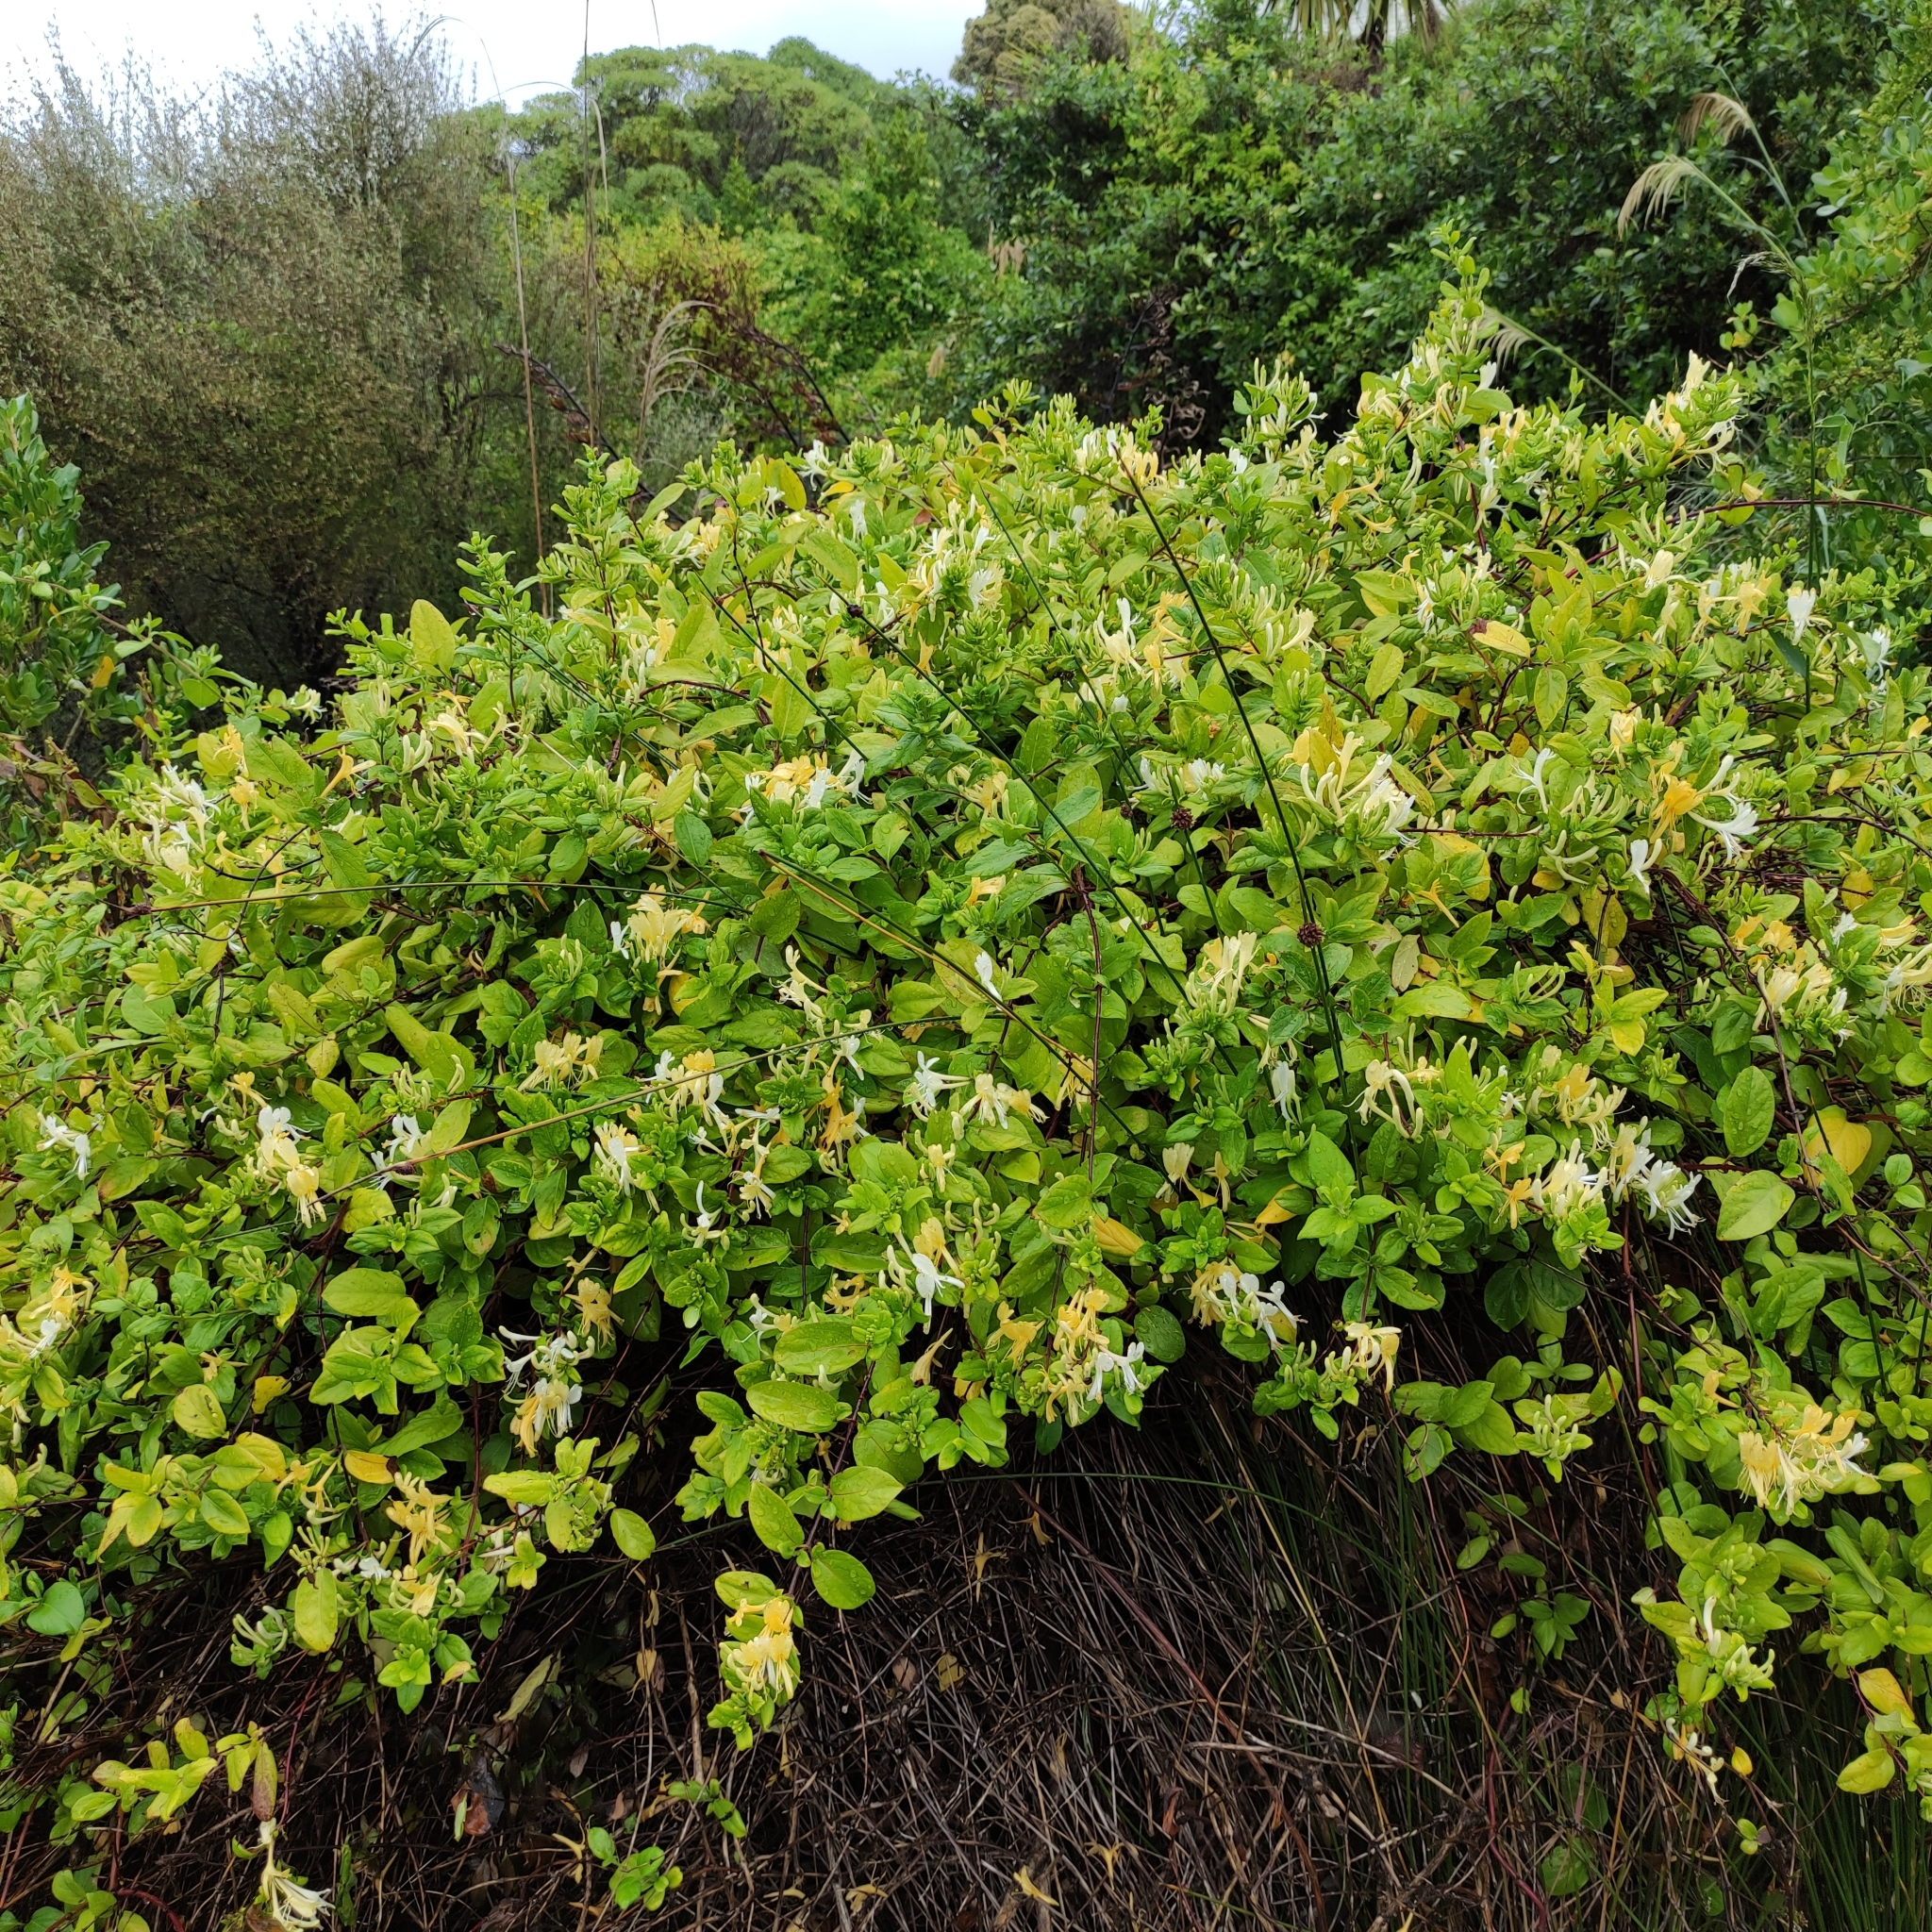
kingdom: Plantae
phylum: Tracheophyta
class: Magnoliopsida
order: Dipsacales
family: Caprifoliaceae
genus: Lonicera
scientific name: Lonicera japonica
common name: Japanese honeysuckle
